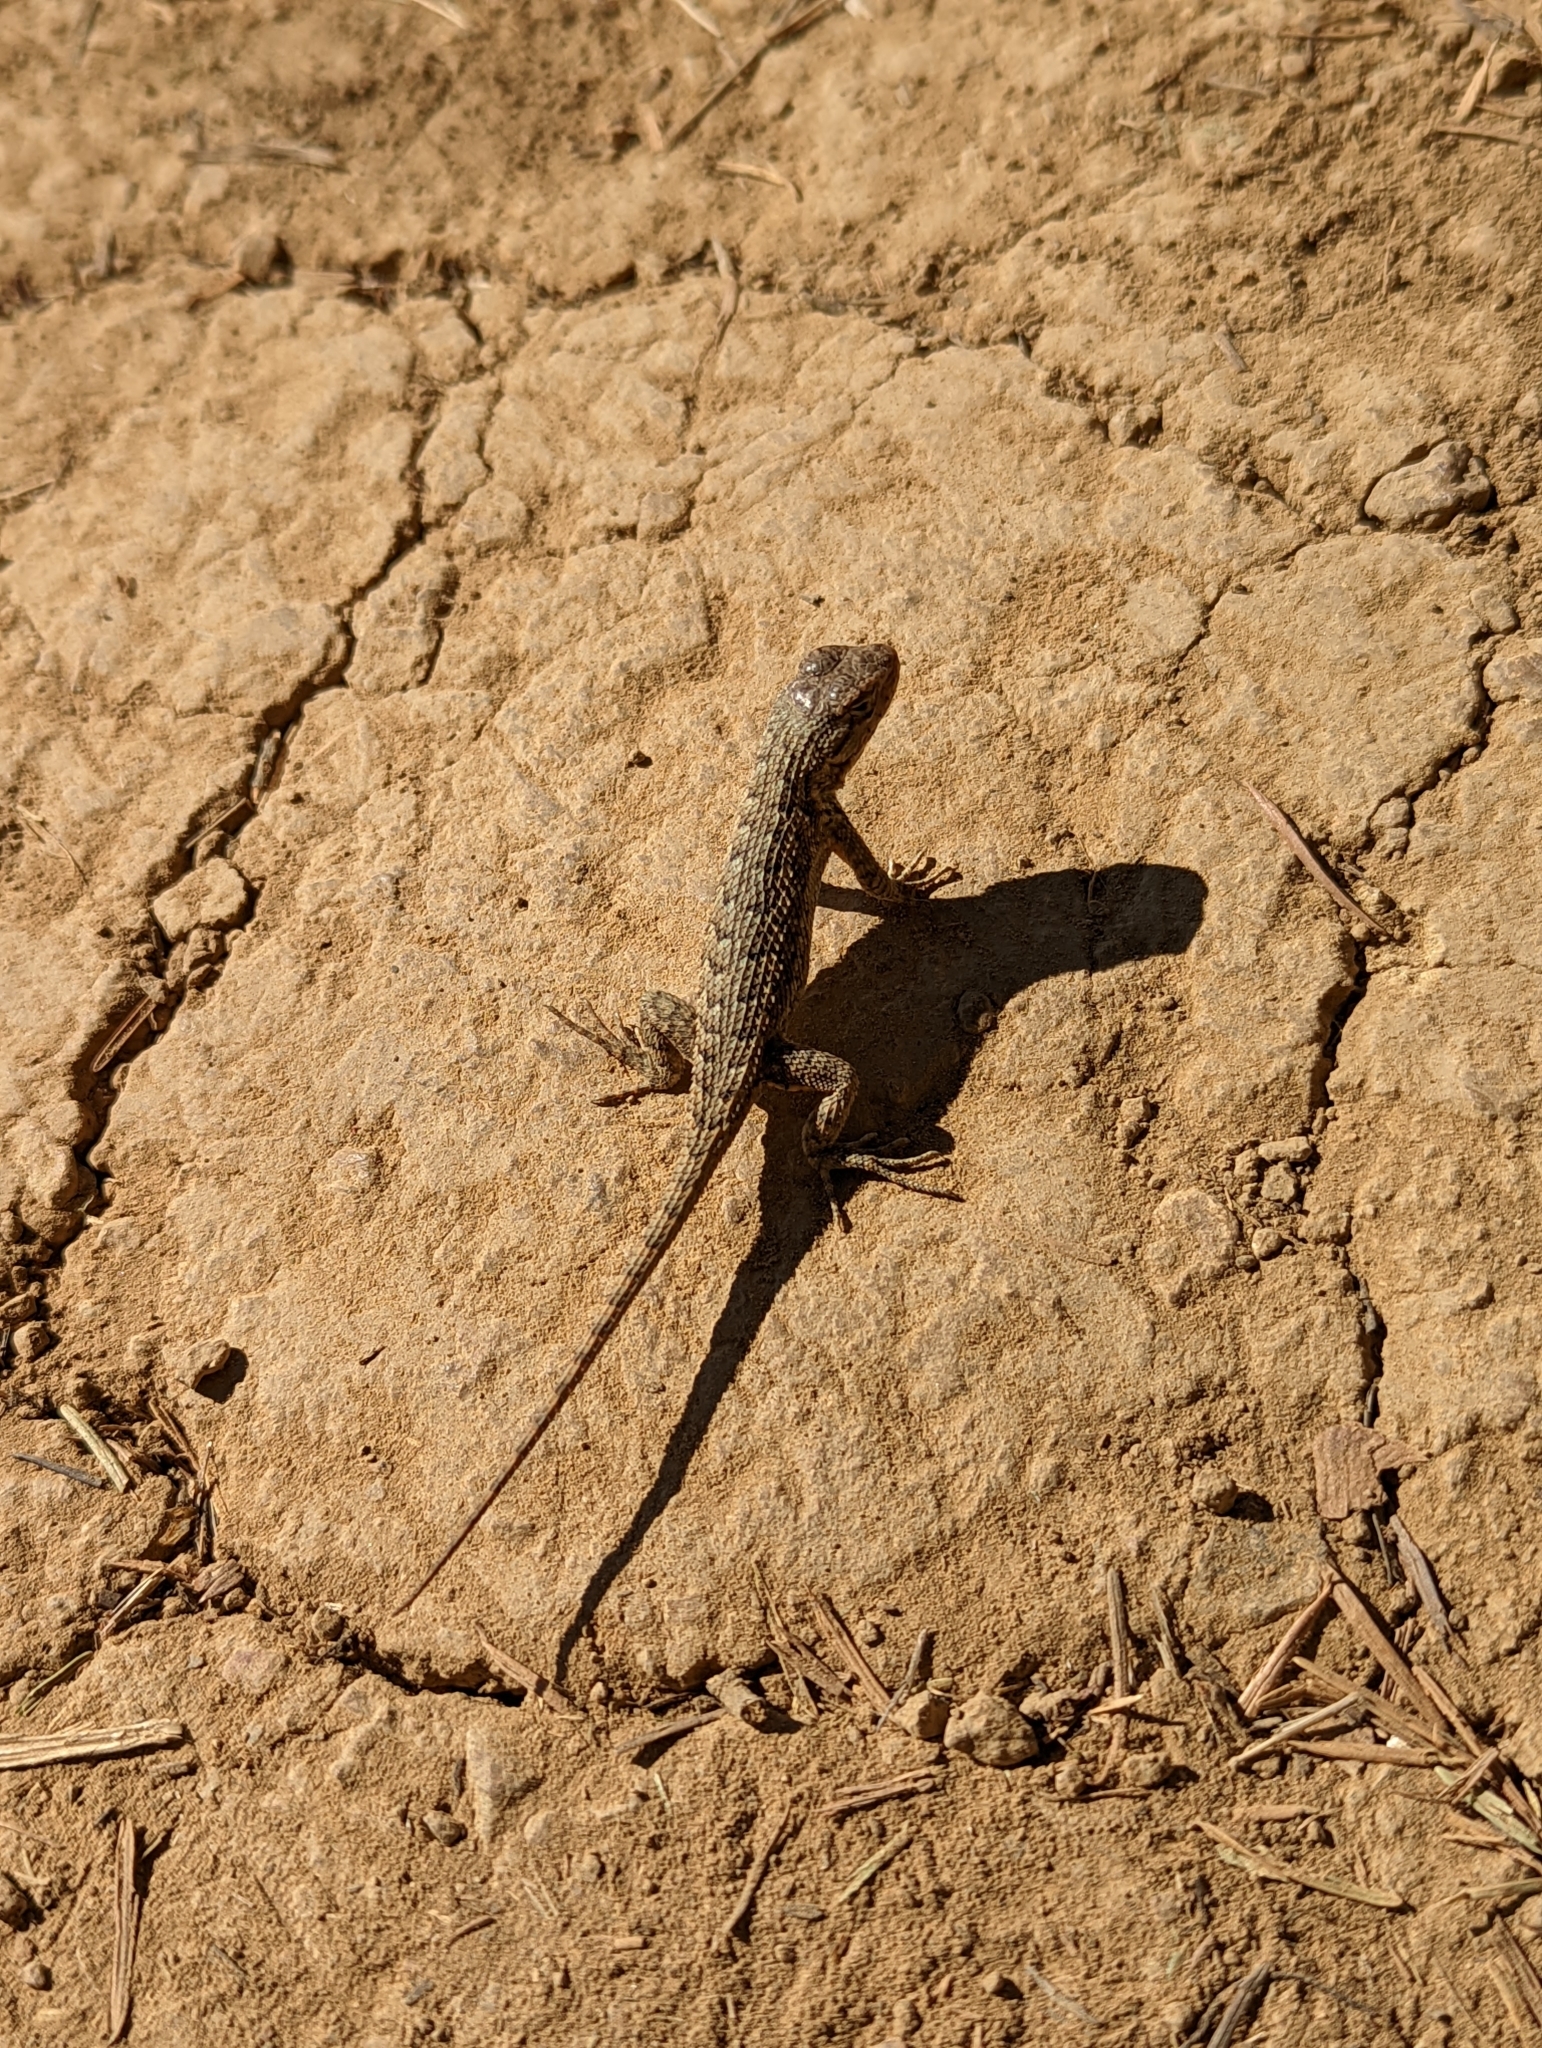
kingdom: Animalia
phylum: Chordata
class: Squamata
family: Phrynosomatidae
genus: Sceloporus
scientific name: Sceloporus occidentalis
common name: Western fence lizard
